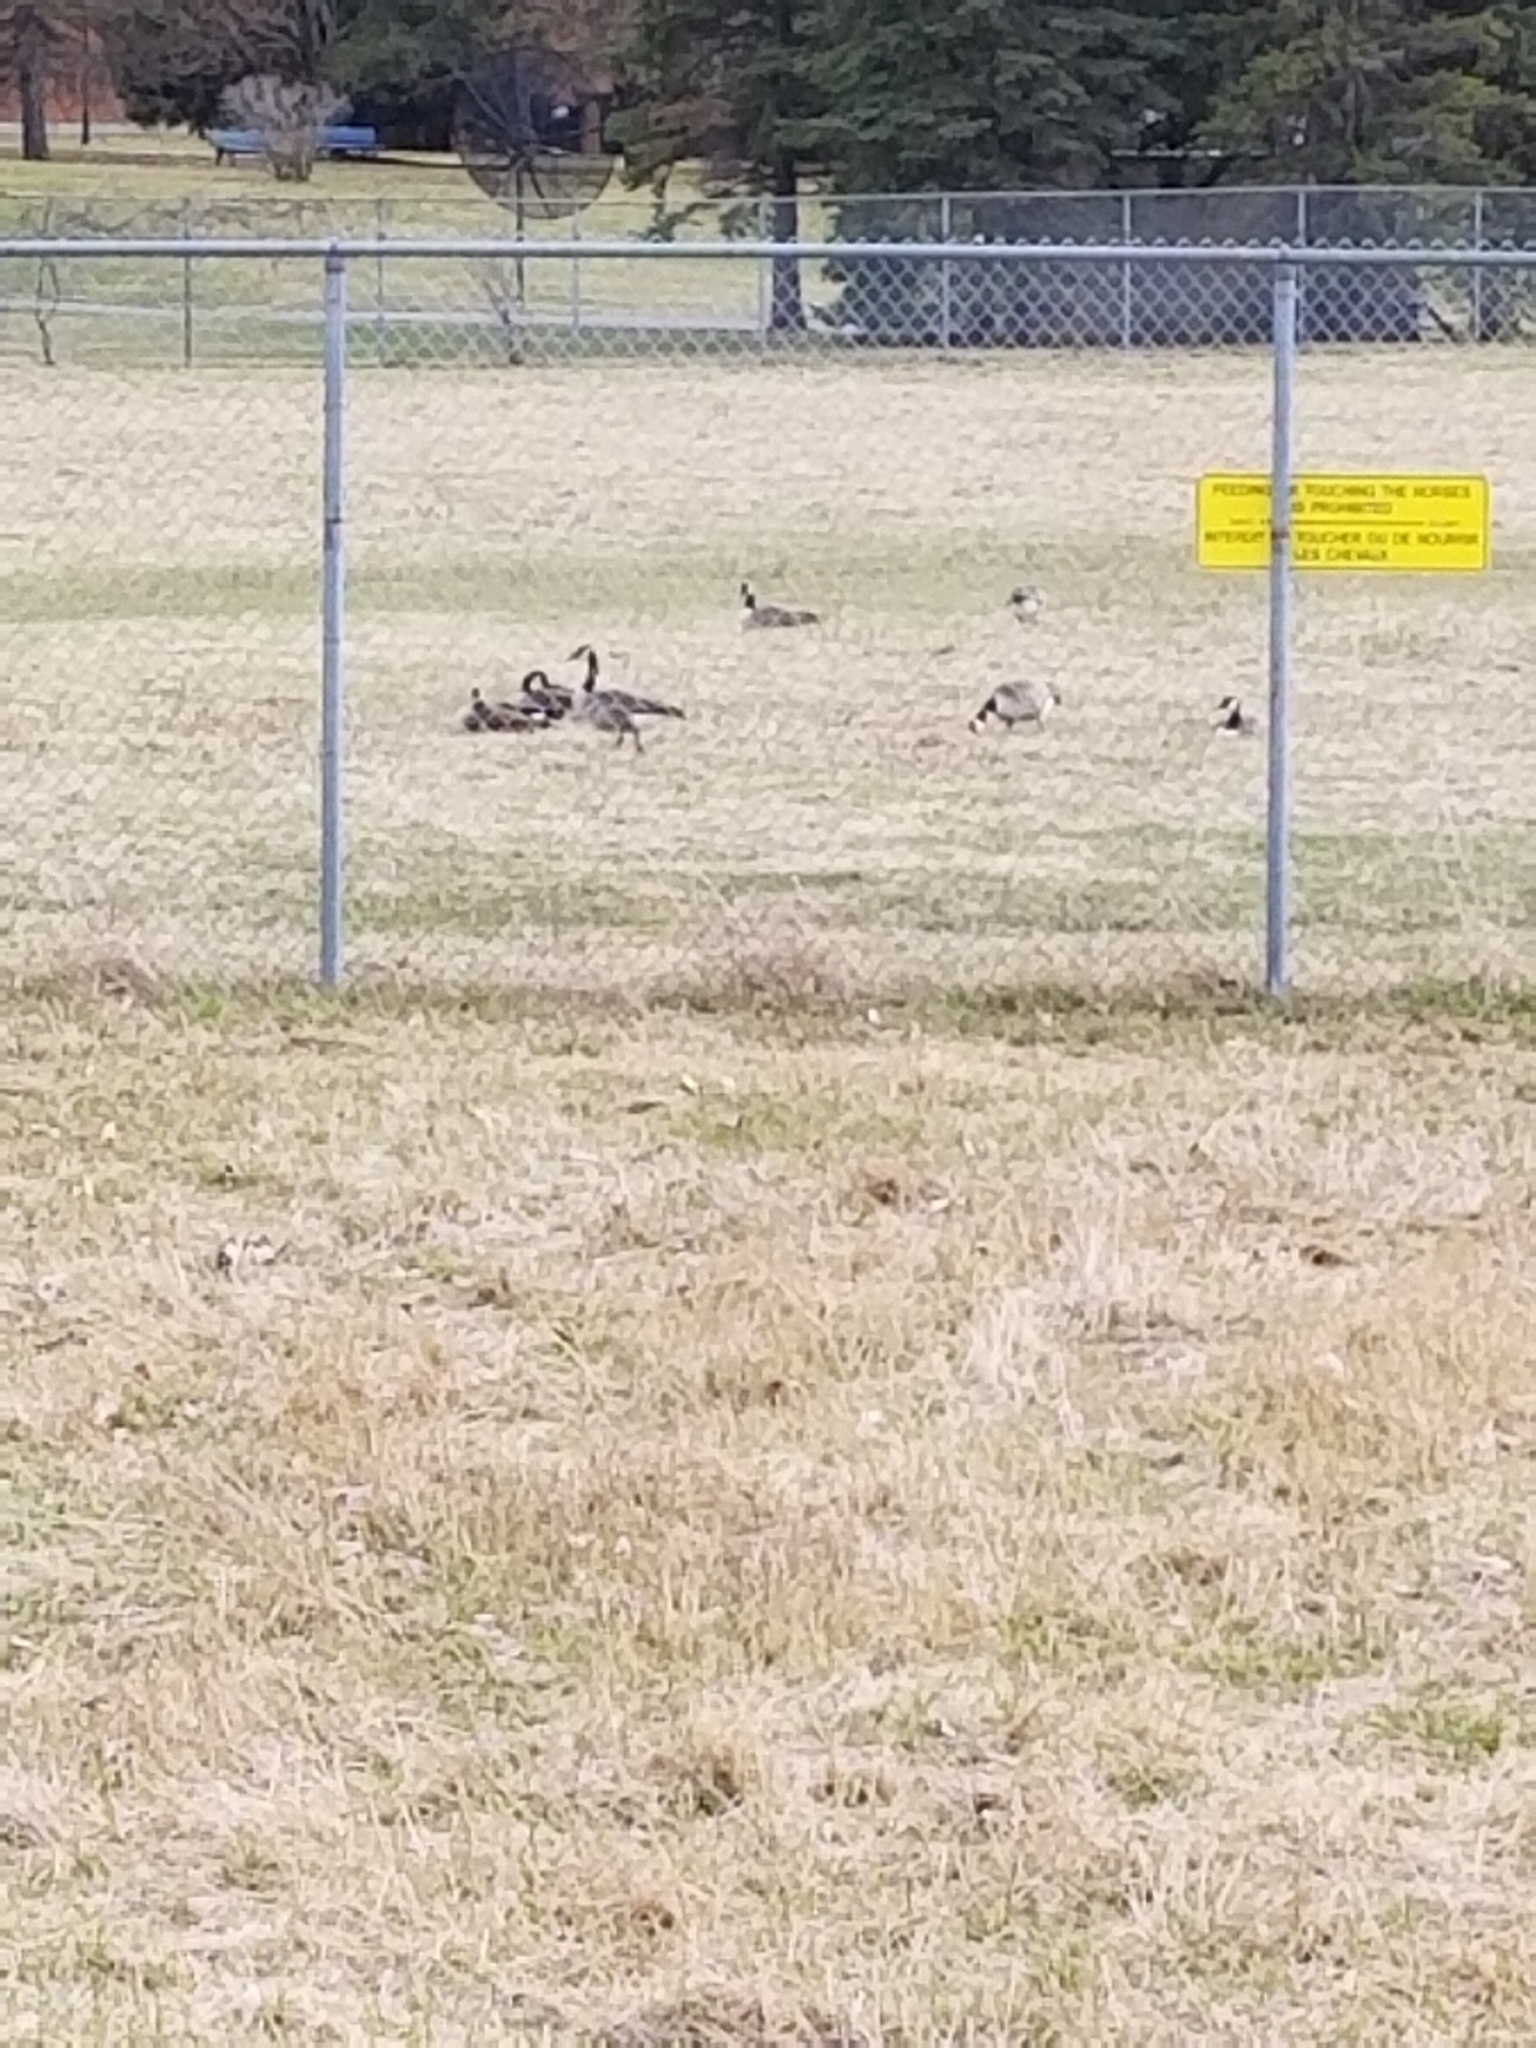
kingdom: Animalia
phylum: Chordata
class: Aves
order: Anseriformes
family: Anatidae
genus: Branta
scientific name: Branta canadensis
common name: Canada goose
